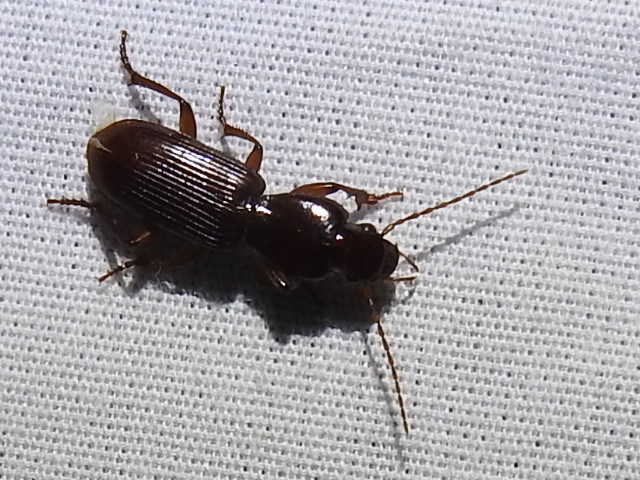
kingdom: Animalia
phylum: Arthropoda
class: Insecta
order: Coleoptera
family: Carabidae
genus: Stenomorphus
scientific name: Stenomorphus californicus
